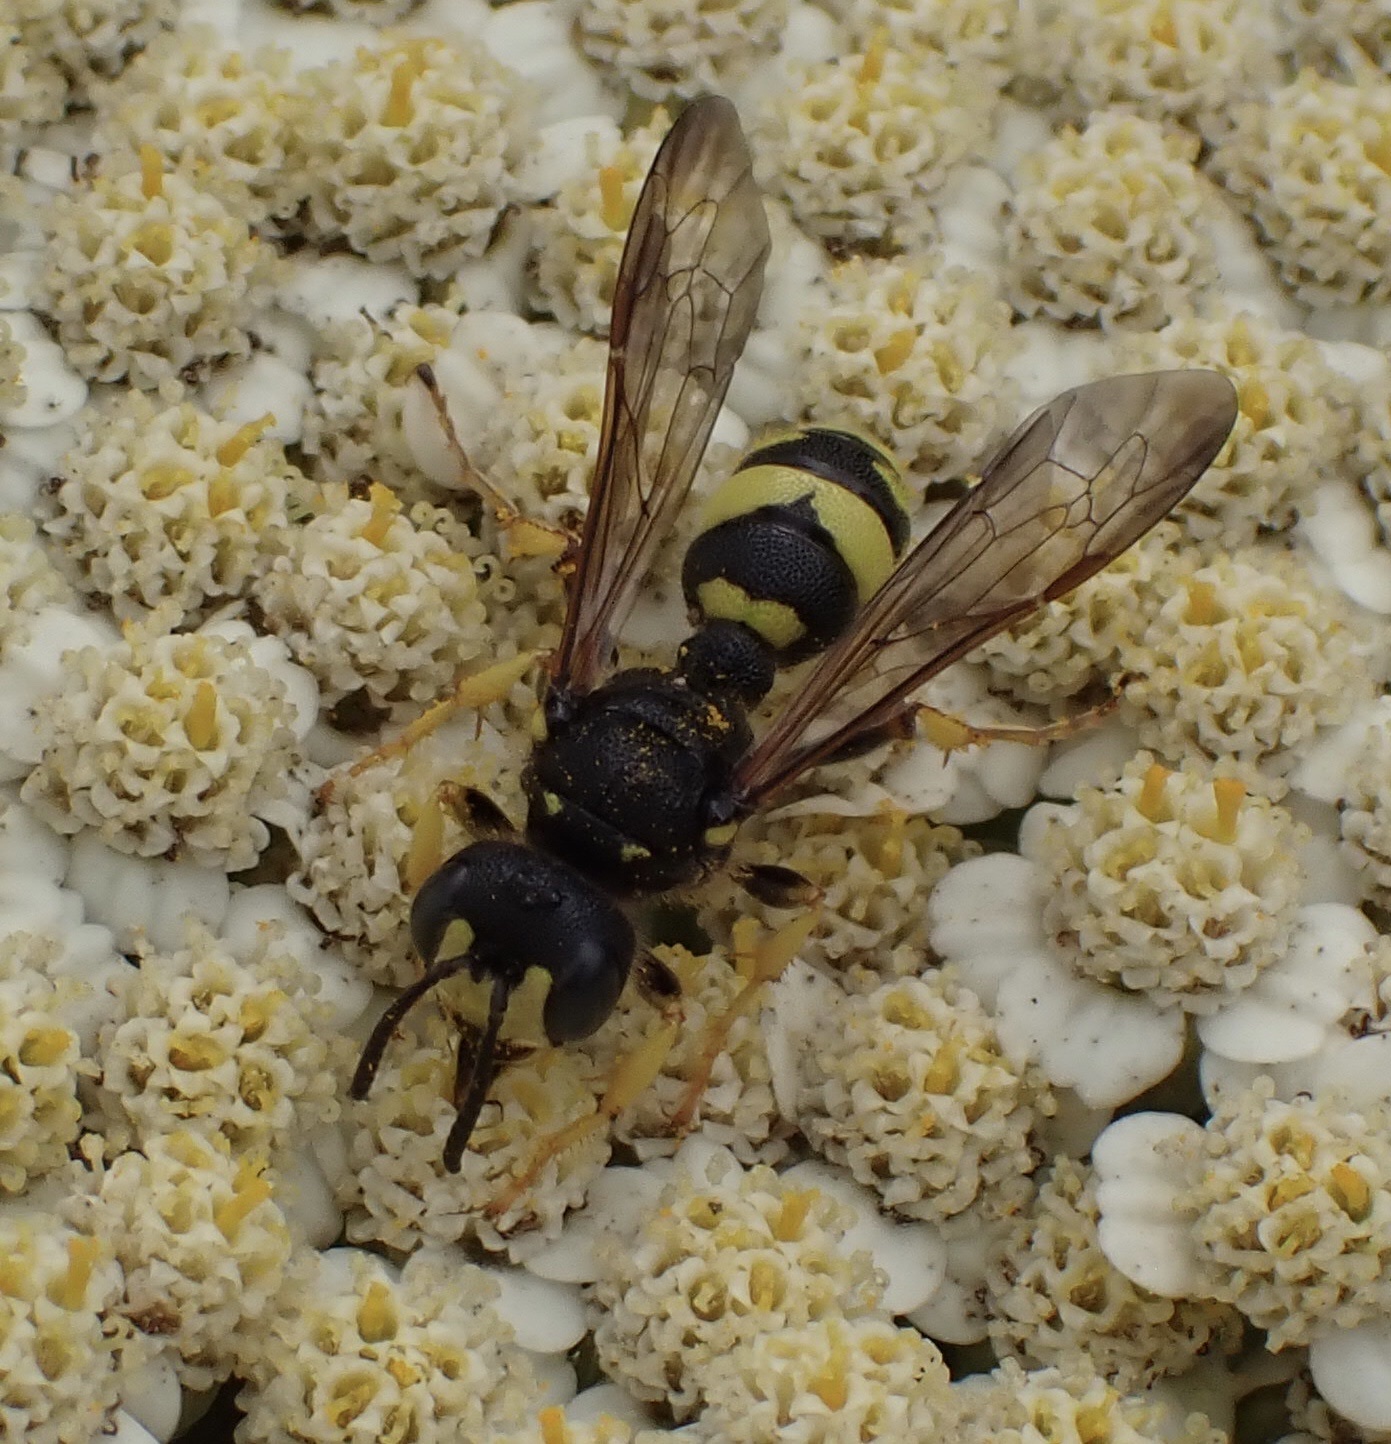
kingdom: Animalia
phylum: Arthropoda
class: Insecta
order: Hymenoptera
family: Crabronidae
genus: Cerceris
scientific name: Cerceris rybyensis
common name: Ornate tailed digger wasp
